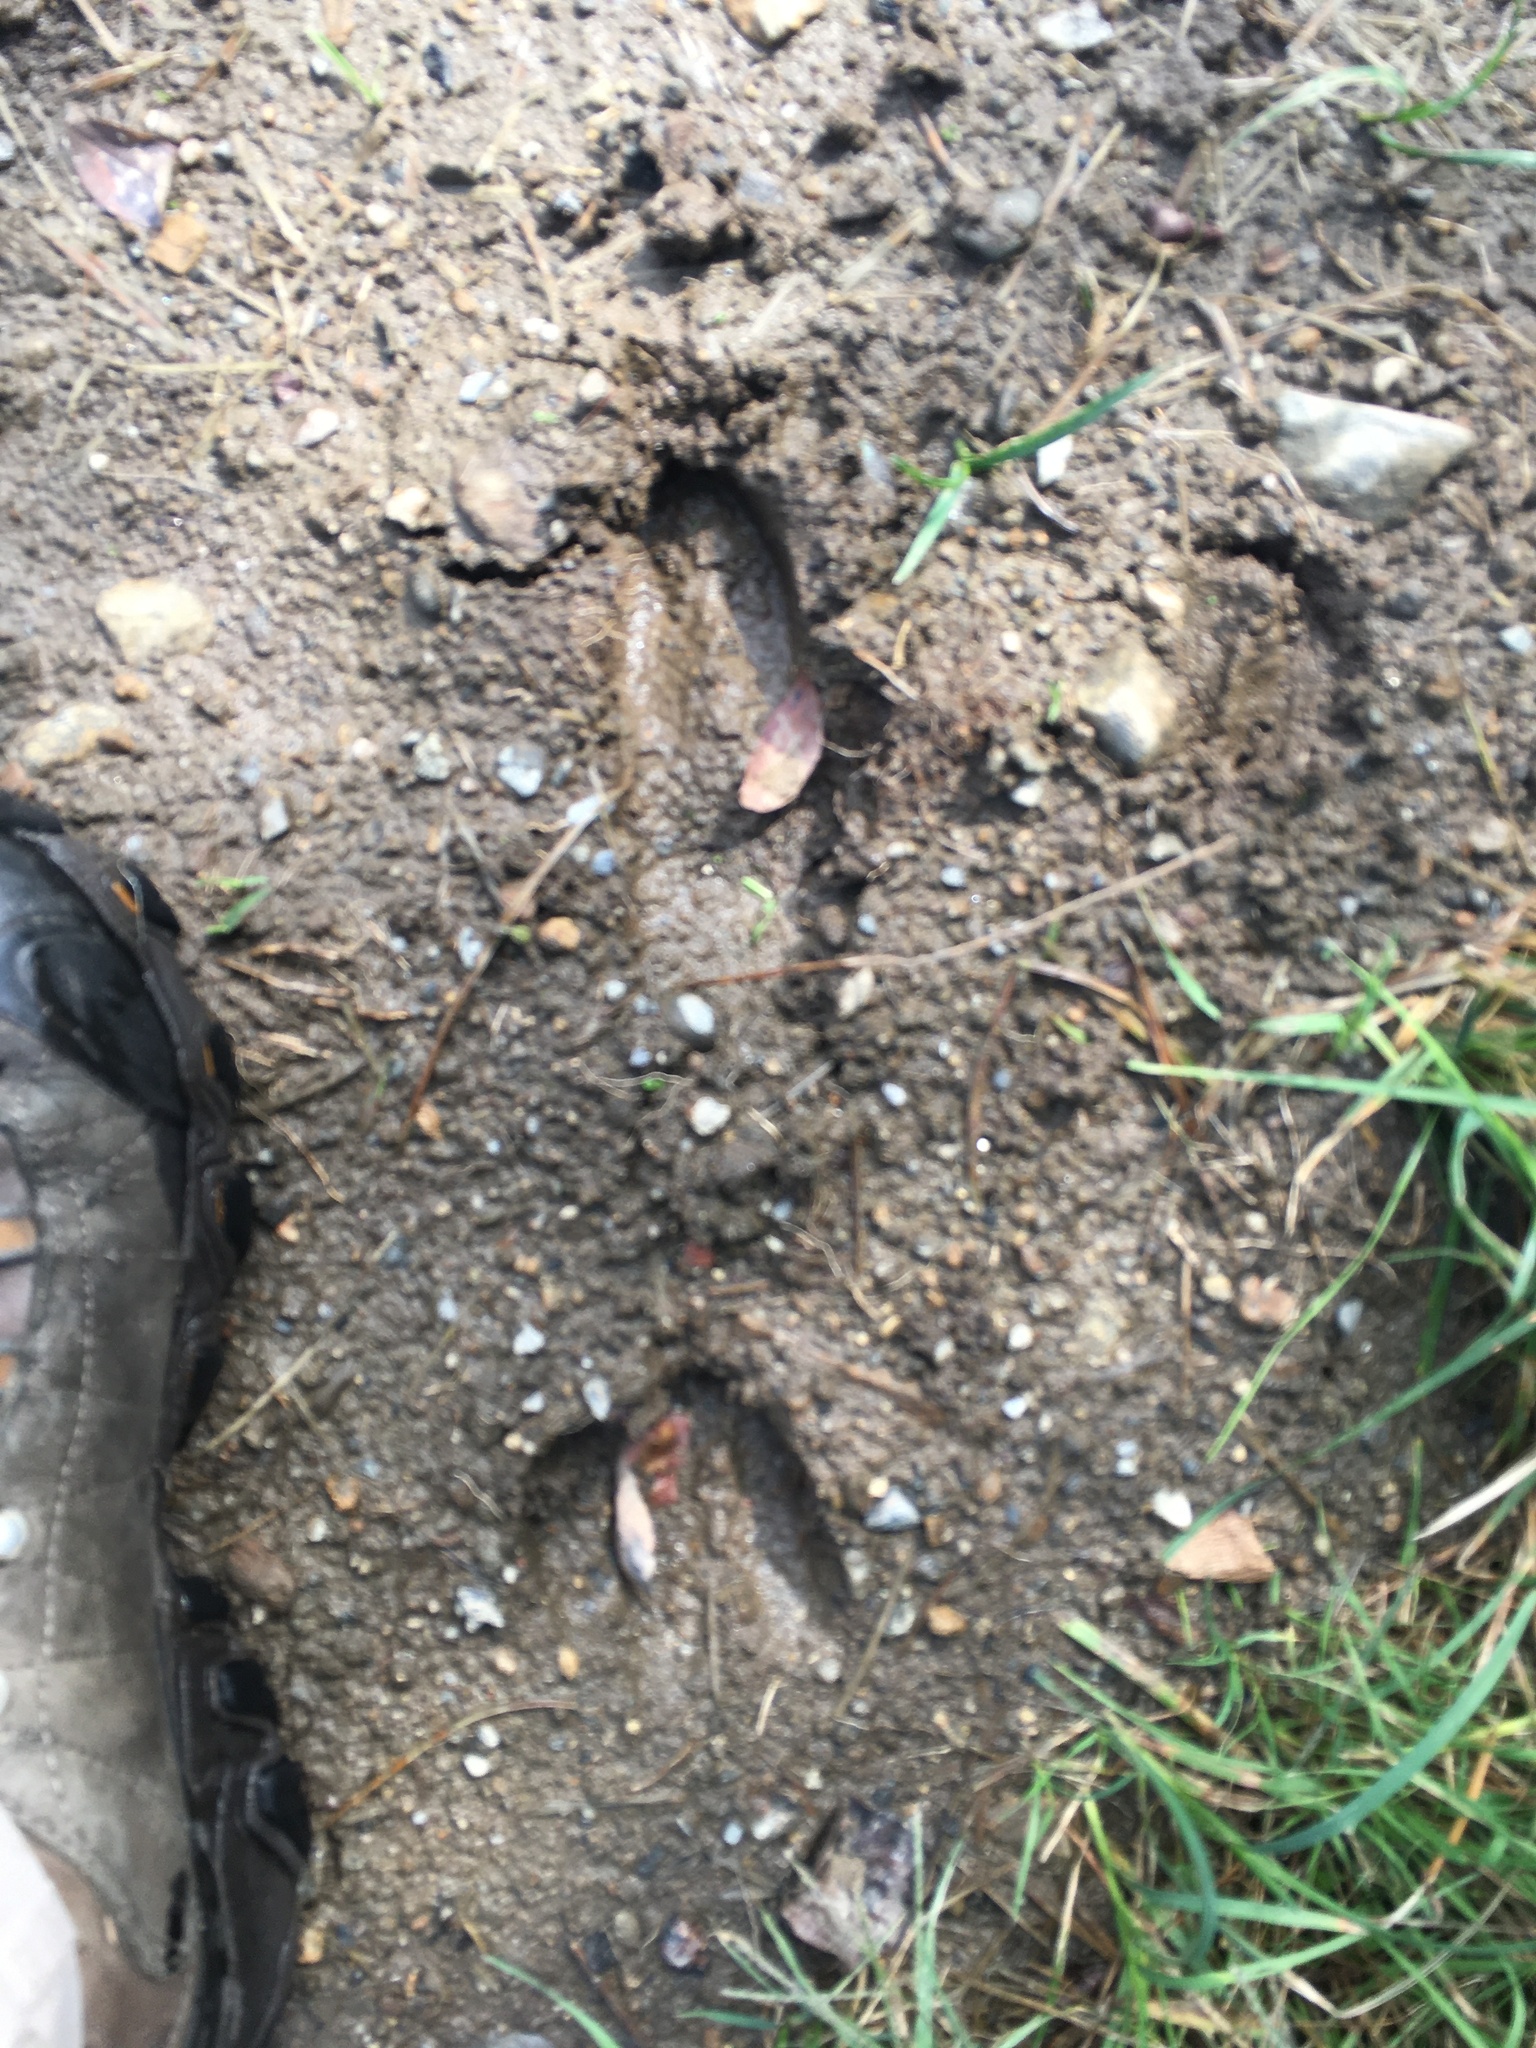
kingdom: Animalia
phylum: Chordata
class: Mammalia
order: Artiodactyla
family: Cervidae
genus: Odocoileus
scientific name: Odocoileus virginianus
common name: White-tailed deer
